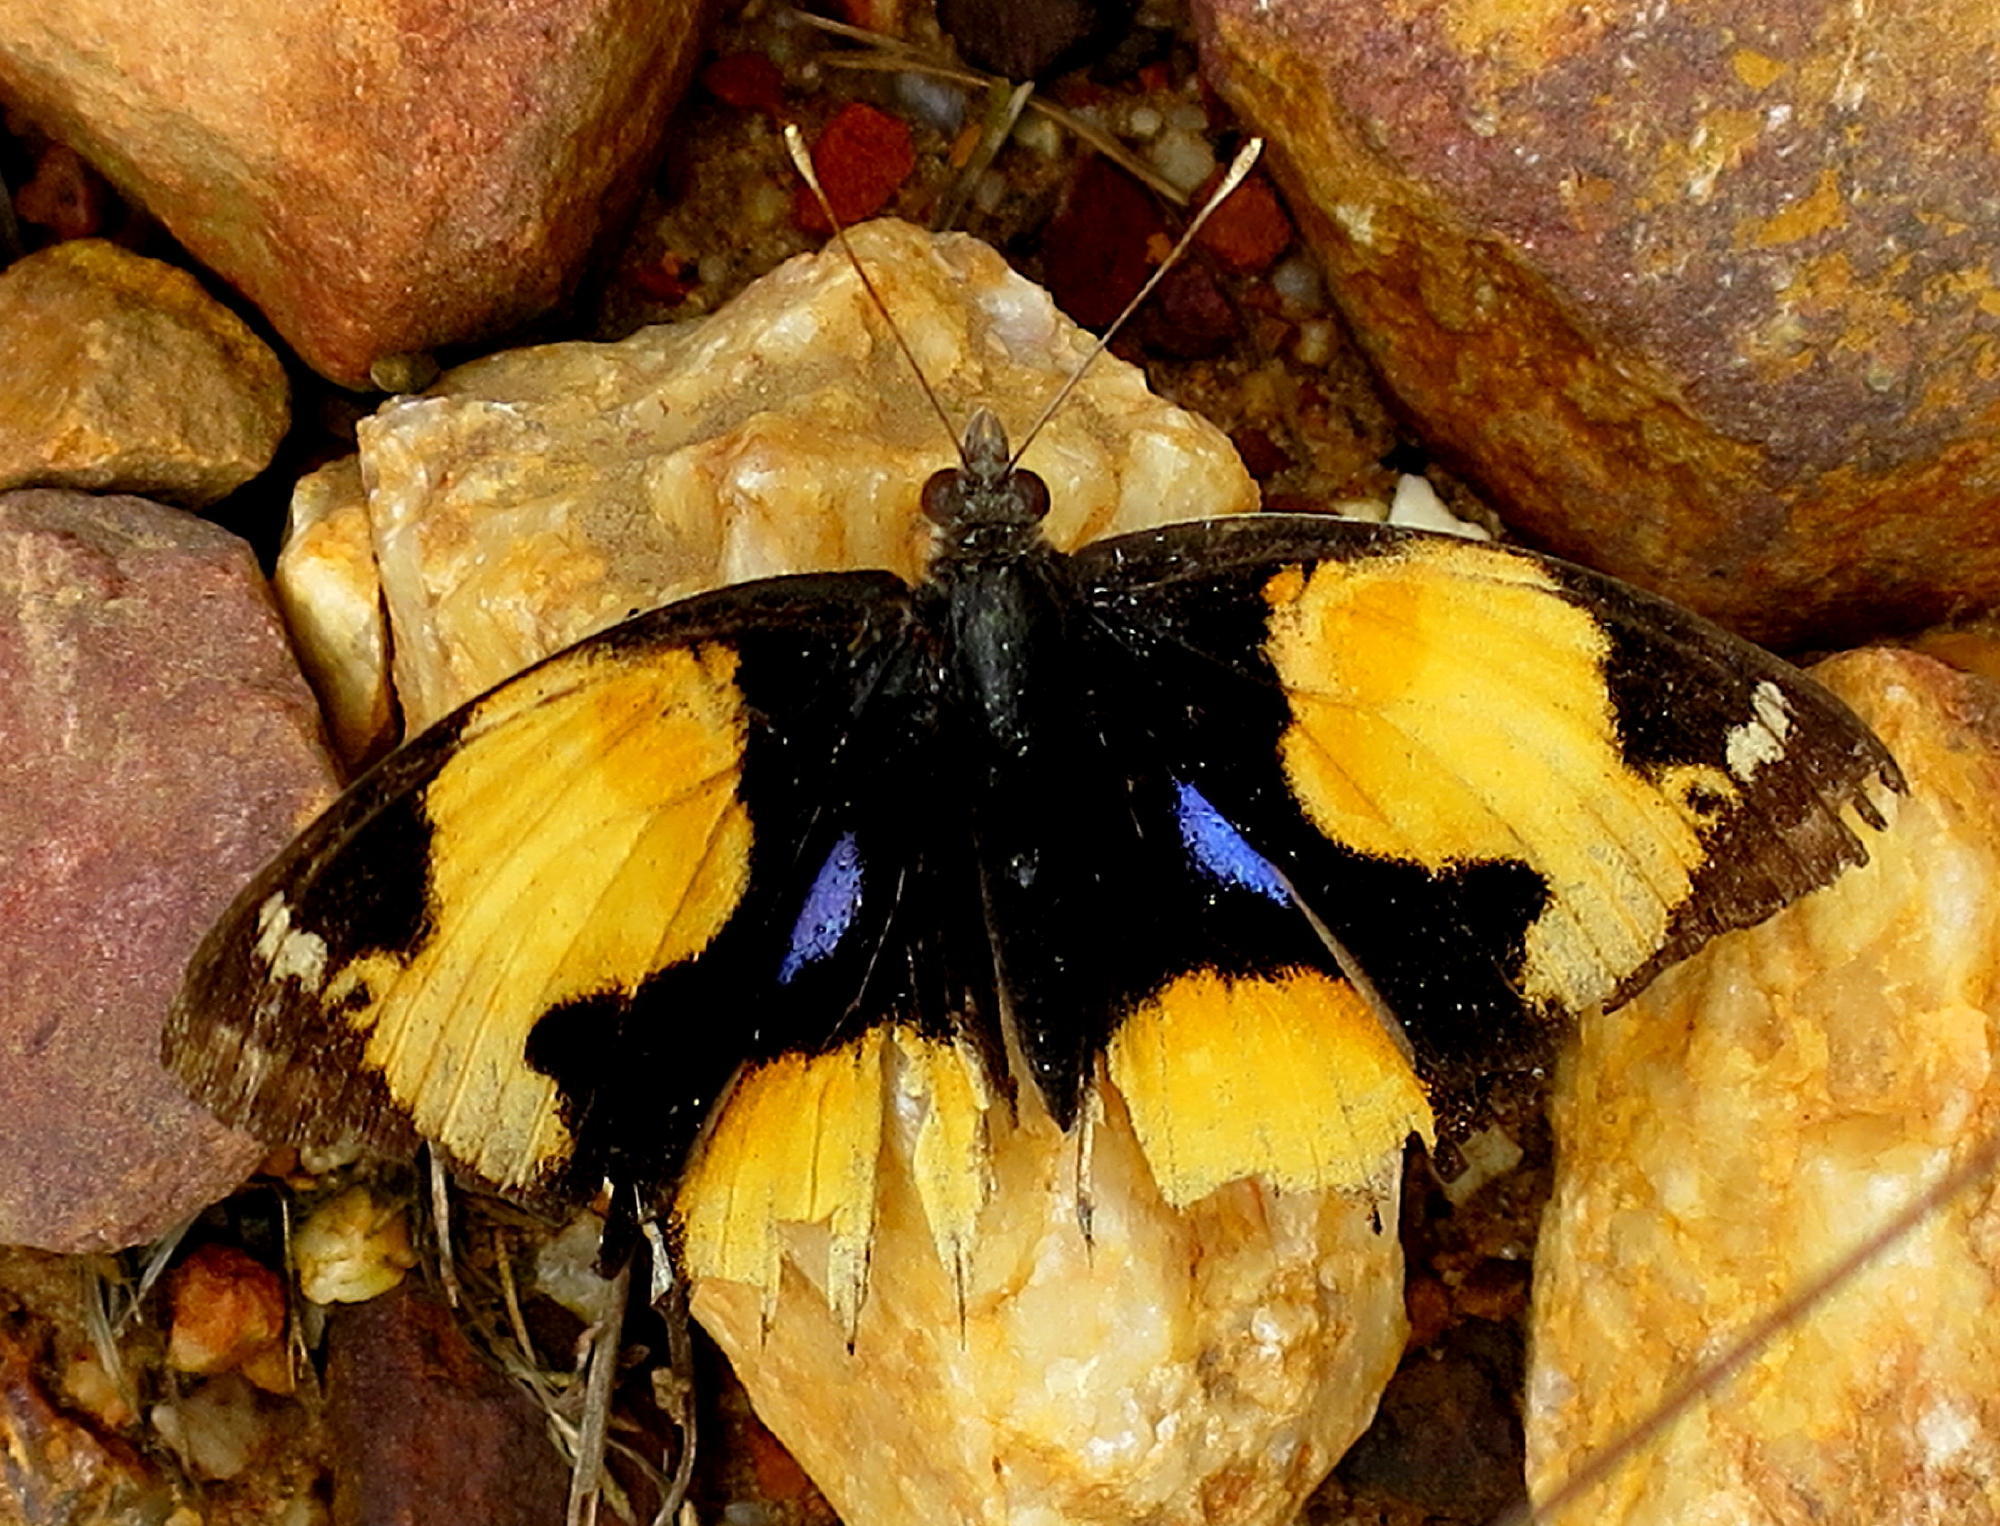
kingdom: Animalia
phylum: Arthropoda
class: Insecta
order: Lepidoptera
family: Nymphalidae
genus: Junonia
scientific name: Junonia hierta
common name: Yellow pansy
